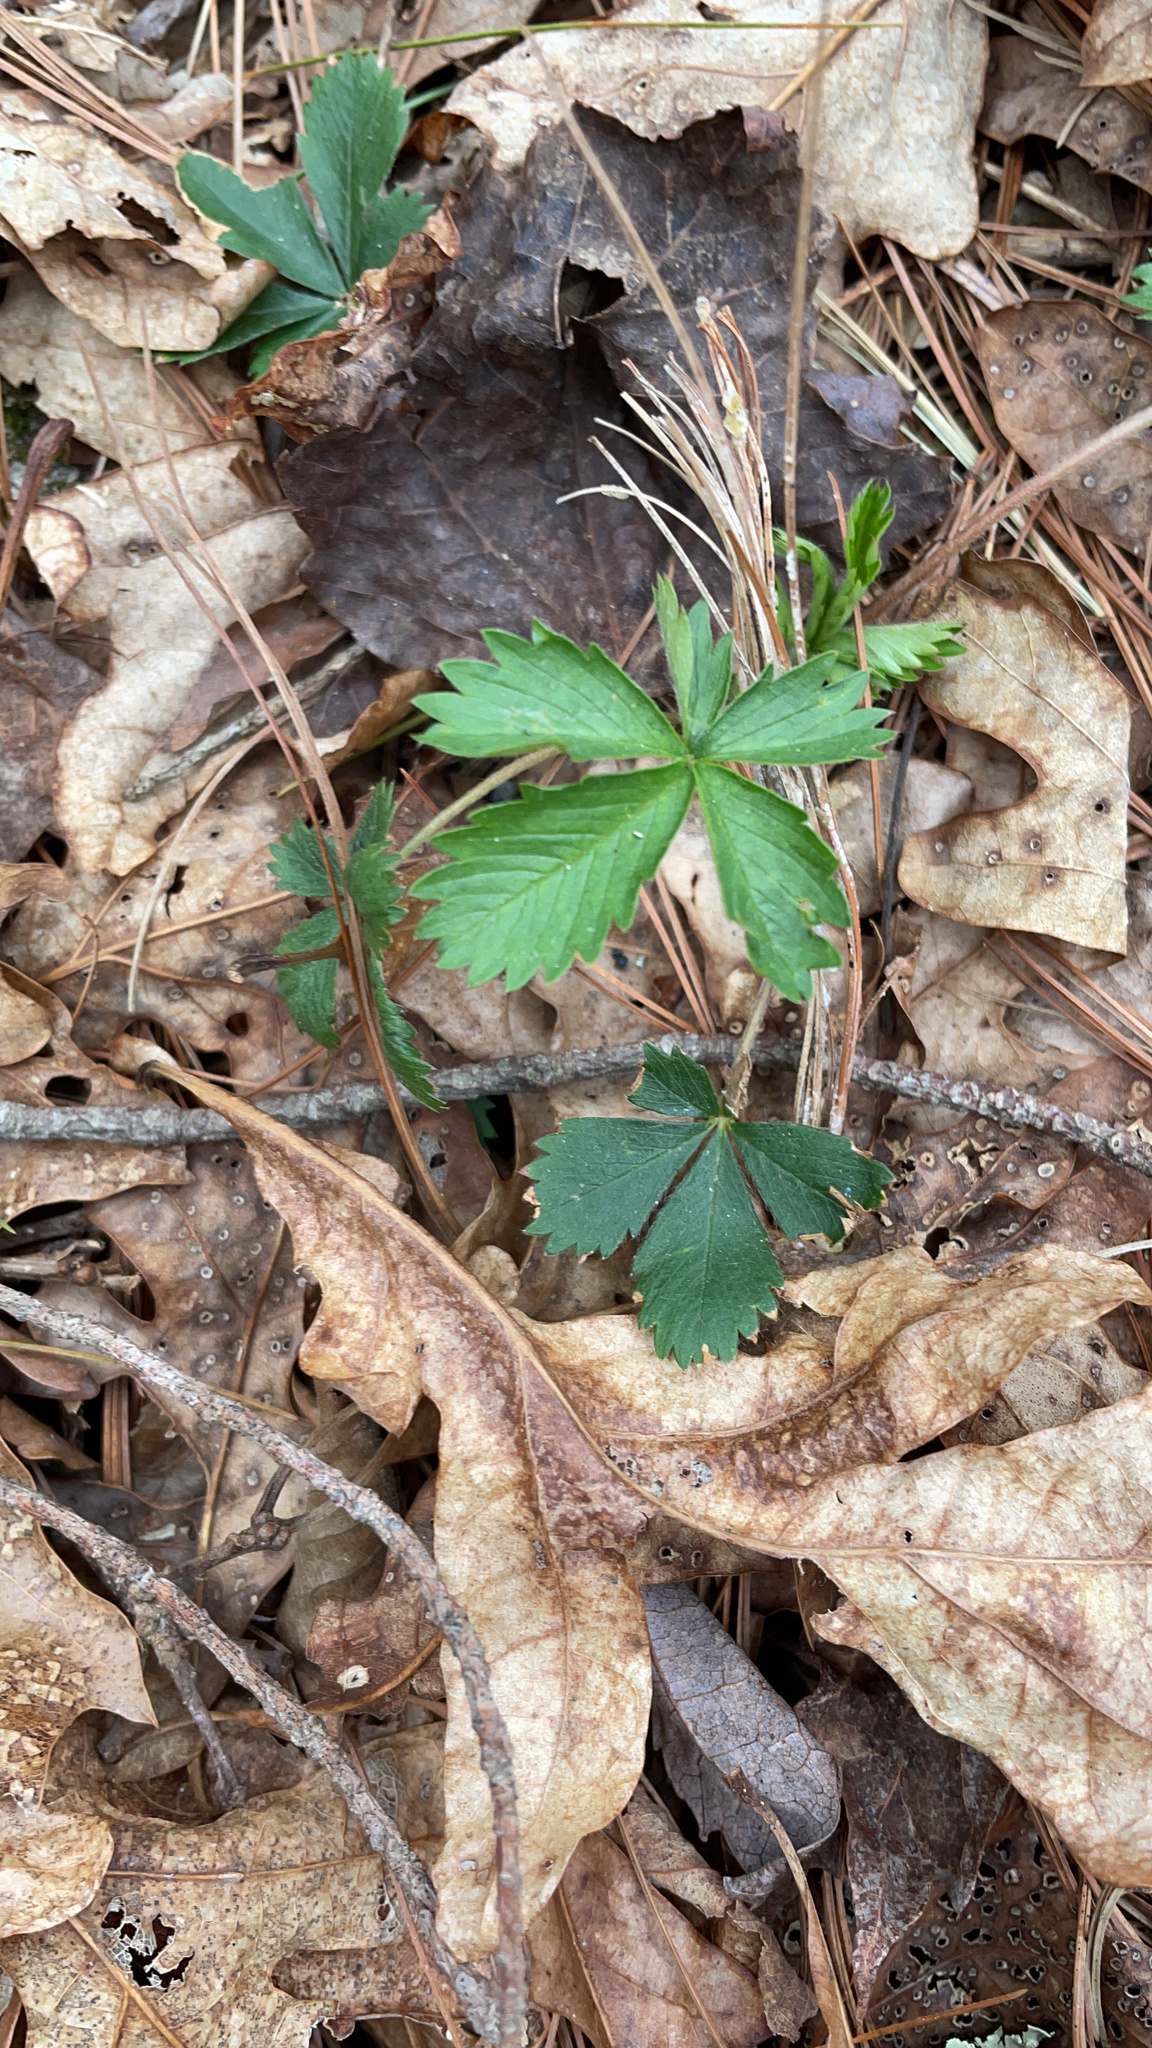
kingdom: Plantae
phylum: Tracheophyta
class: Magnoliopsida
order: Rosales
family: Rosaceae
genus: Potentilla
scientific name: Potentilla canadensis
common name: Canada cinquefoil
